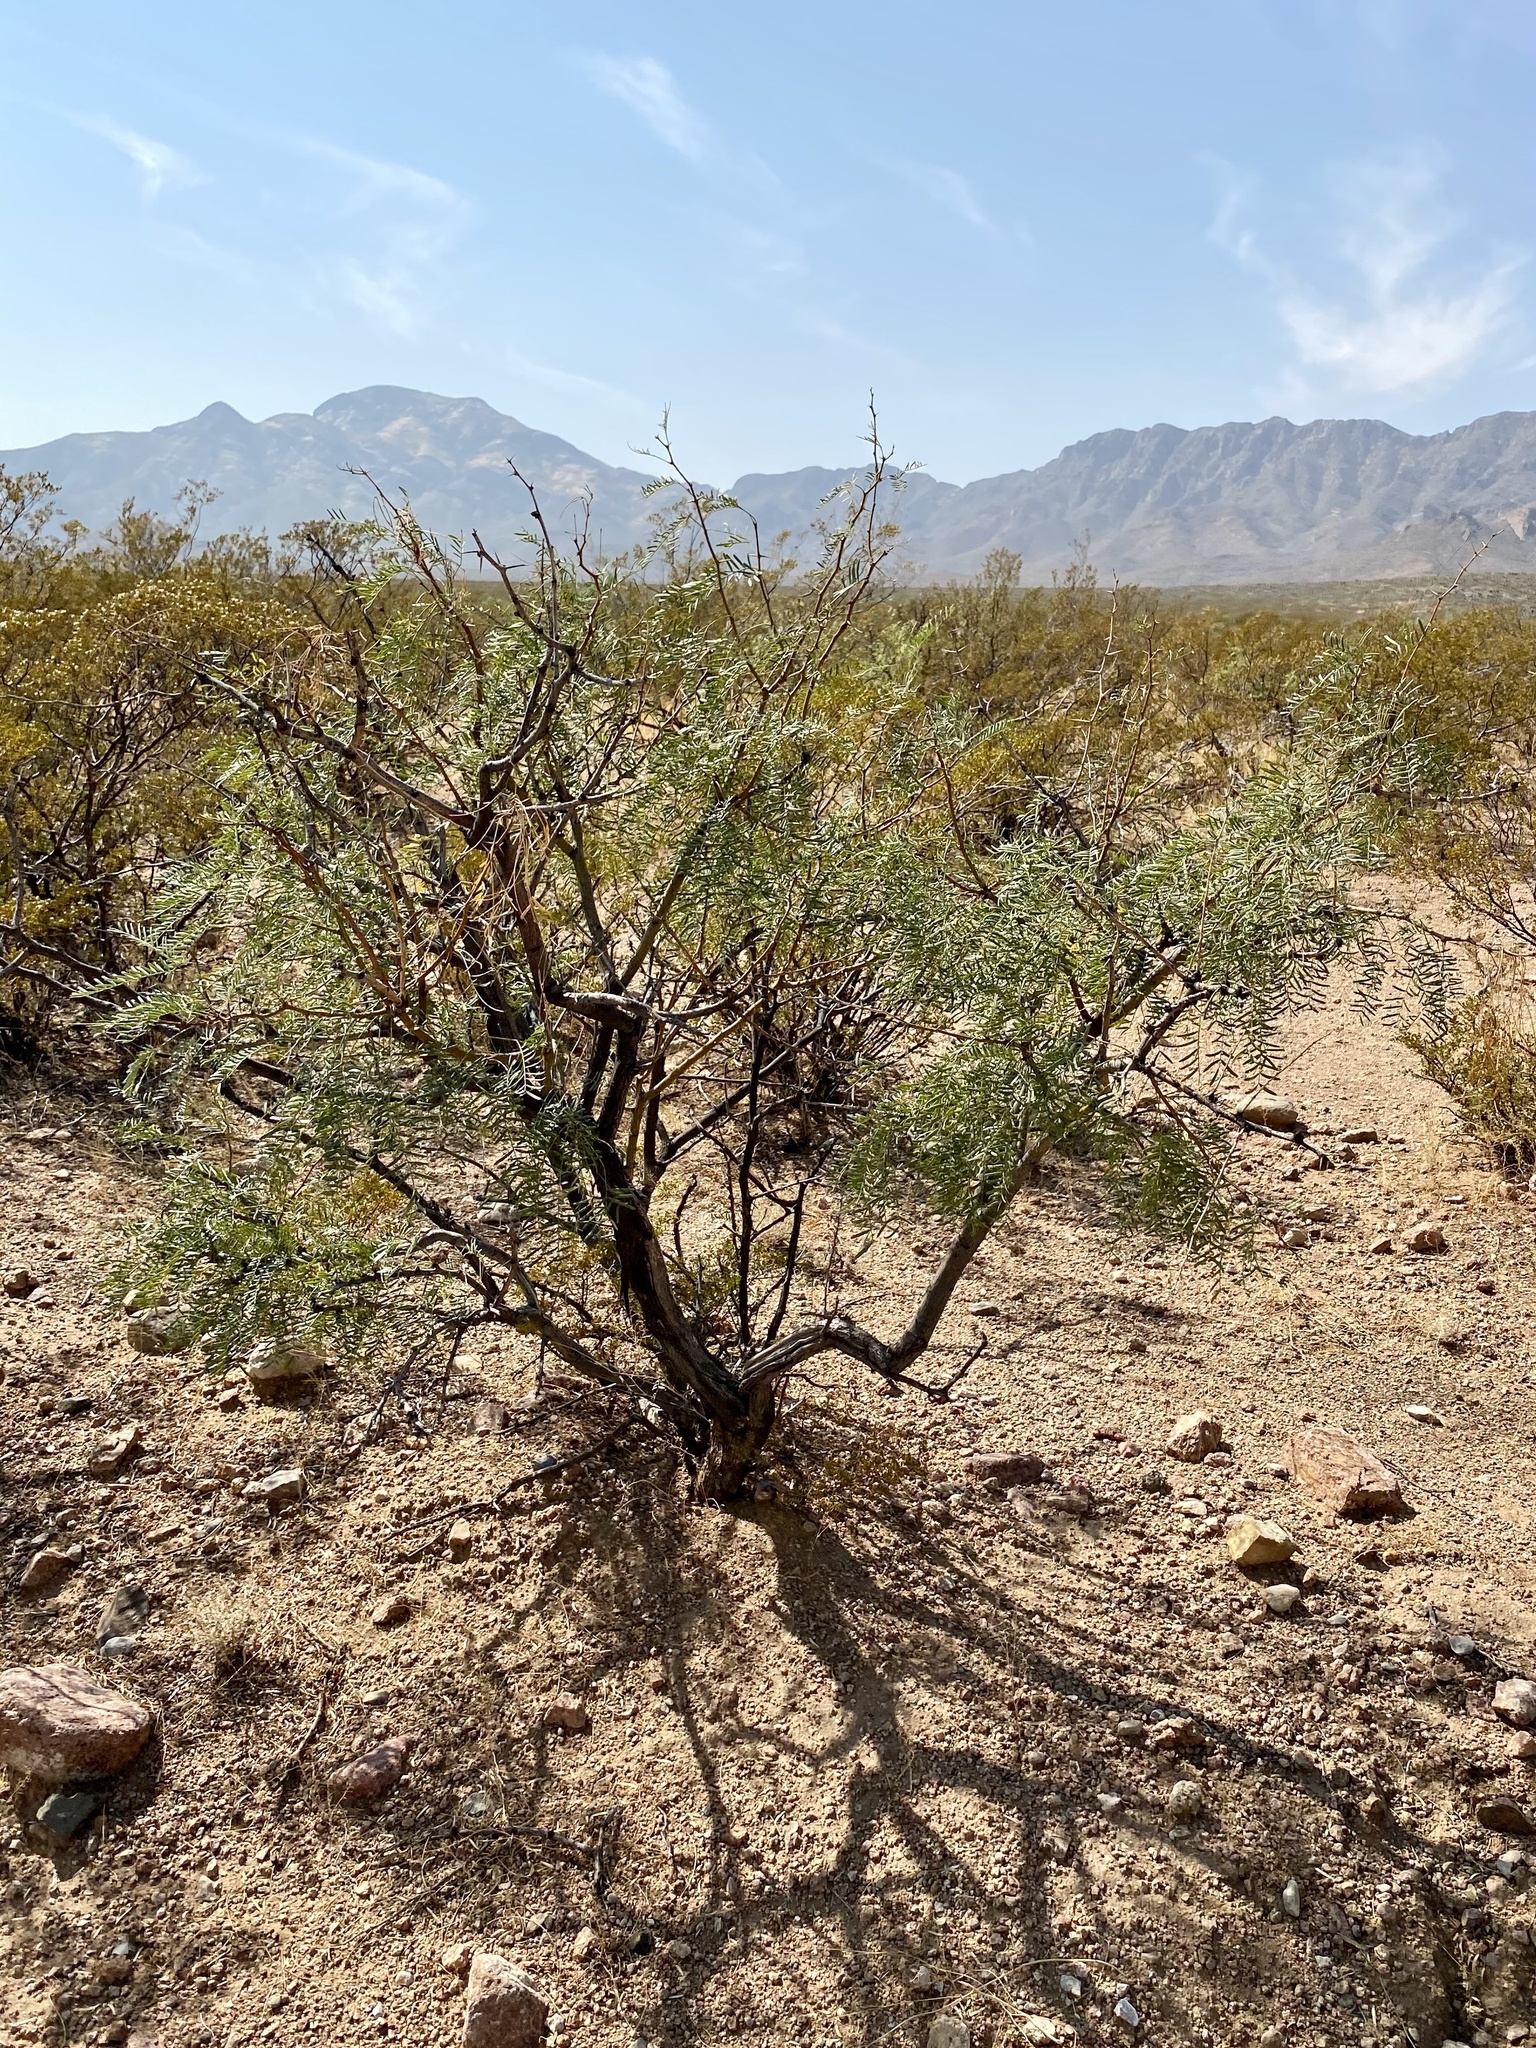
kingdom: Plantae
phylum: Tracheophyta
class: Magnoliopsida
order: Fabales
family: Fabaceae
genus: Prosopis
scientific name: Prosopis glandulosa
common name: Honey mesquite
